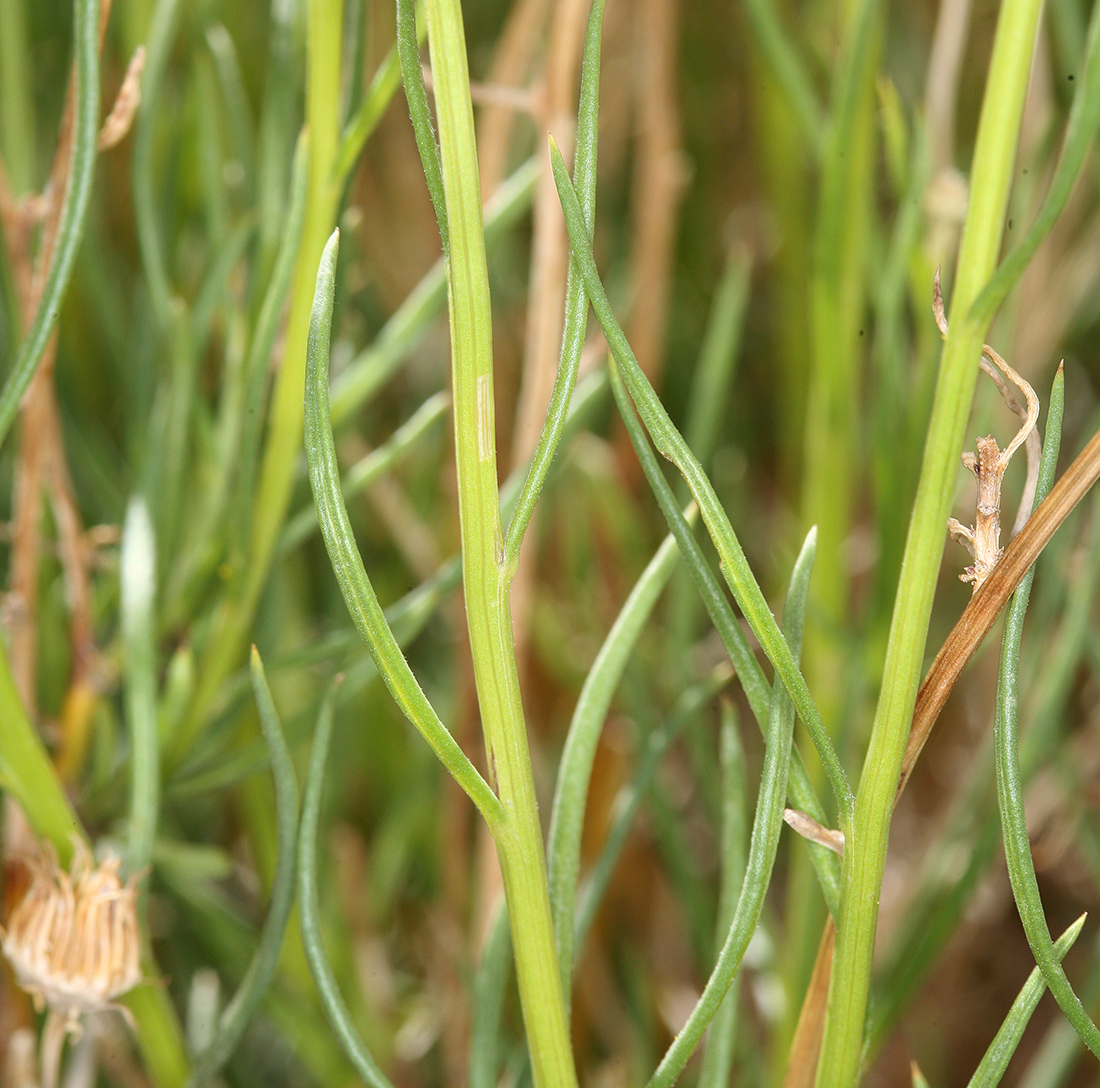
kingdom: Plantae
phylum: Tracheophyta
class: Magnoliopsida
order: Asterales
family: Asteraceae
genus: Senecio
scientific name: Senecio flaccidus
